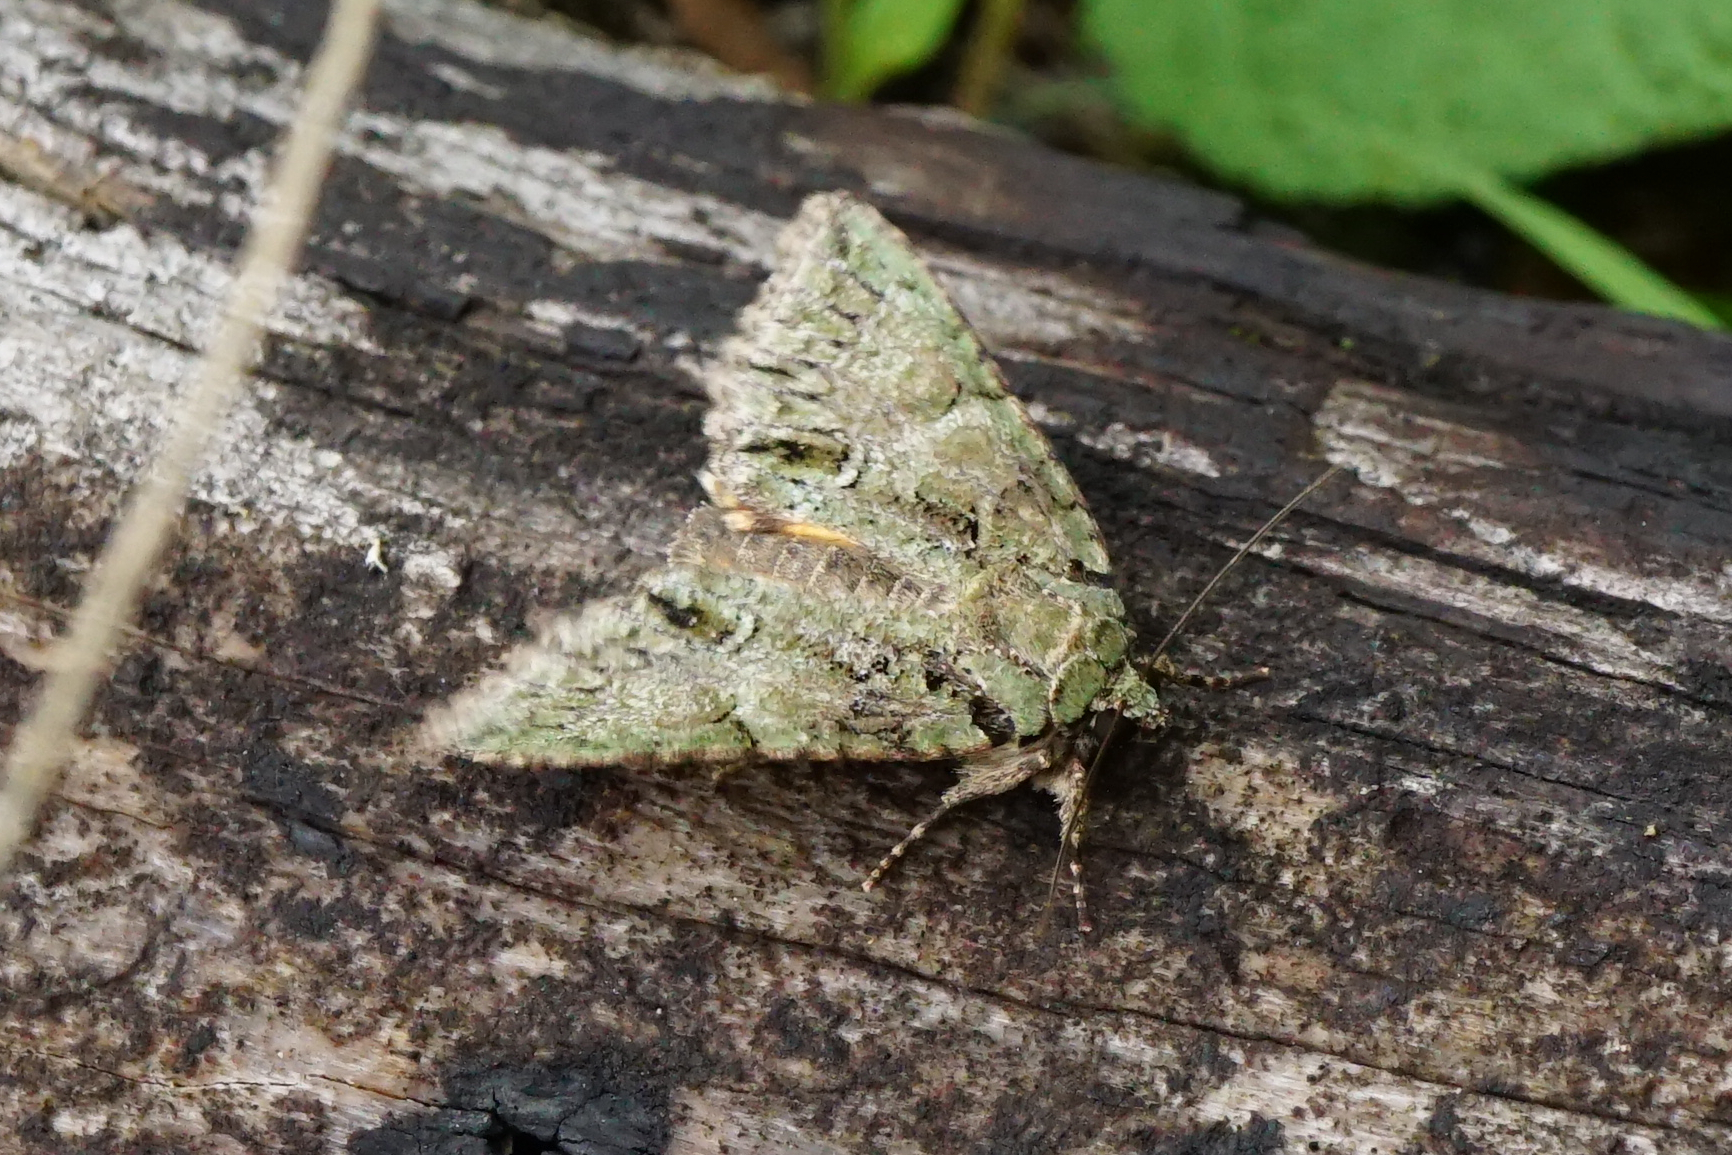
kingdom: Animalia
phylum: Arthropoda
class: Insecta
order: Lepidoptera
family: Noctuidae
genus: Polyphaenis
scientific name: Polyphaenis sericata
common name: Guernsey underwing
